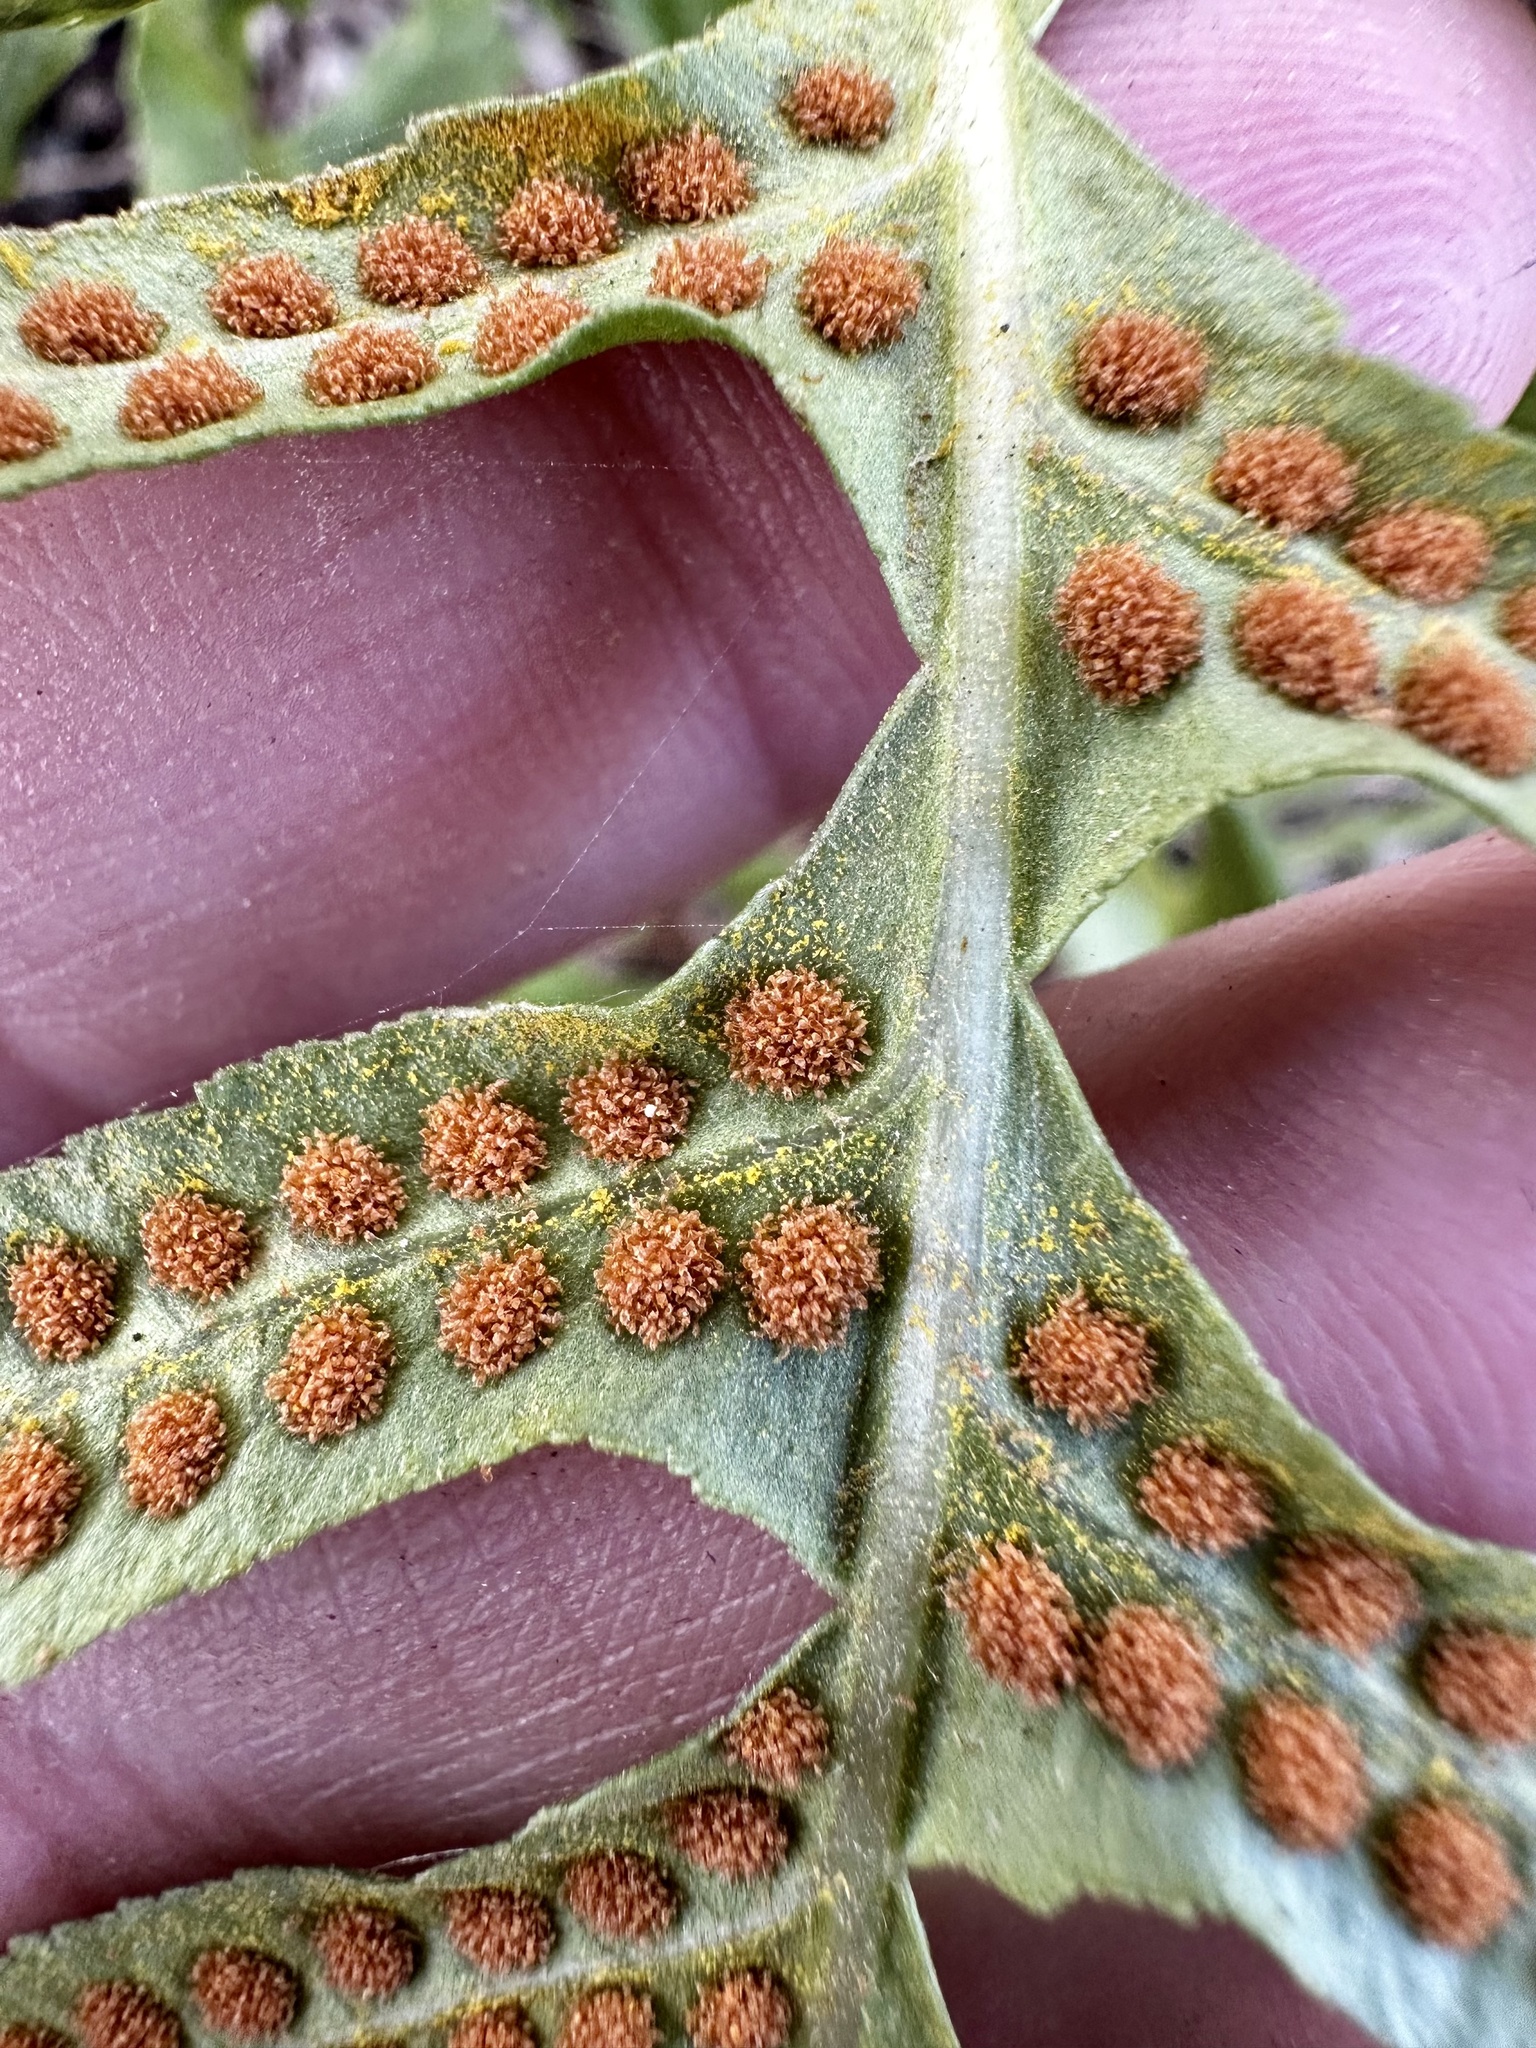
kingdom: Plantae
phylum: Tracheophyta
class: Polypodiopsida
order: Polypodiales
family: Polypodiaceae
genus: Polypodium
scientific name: Polypodium californicum
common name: California polypody
